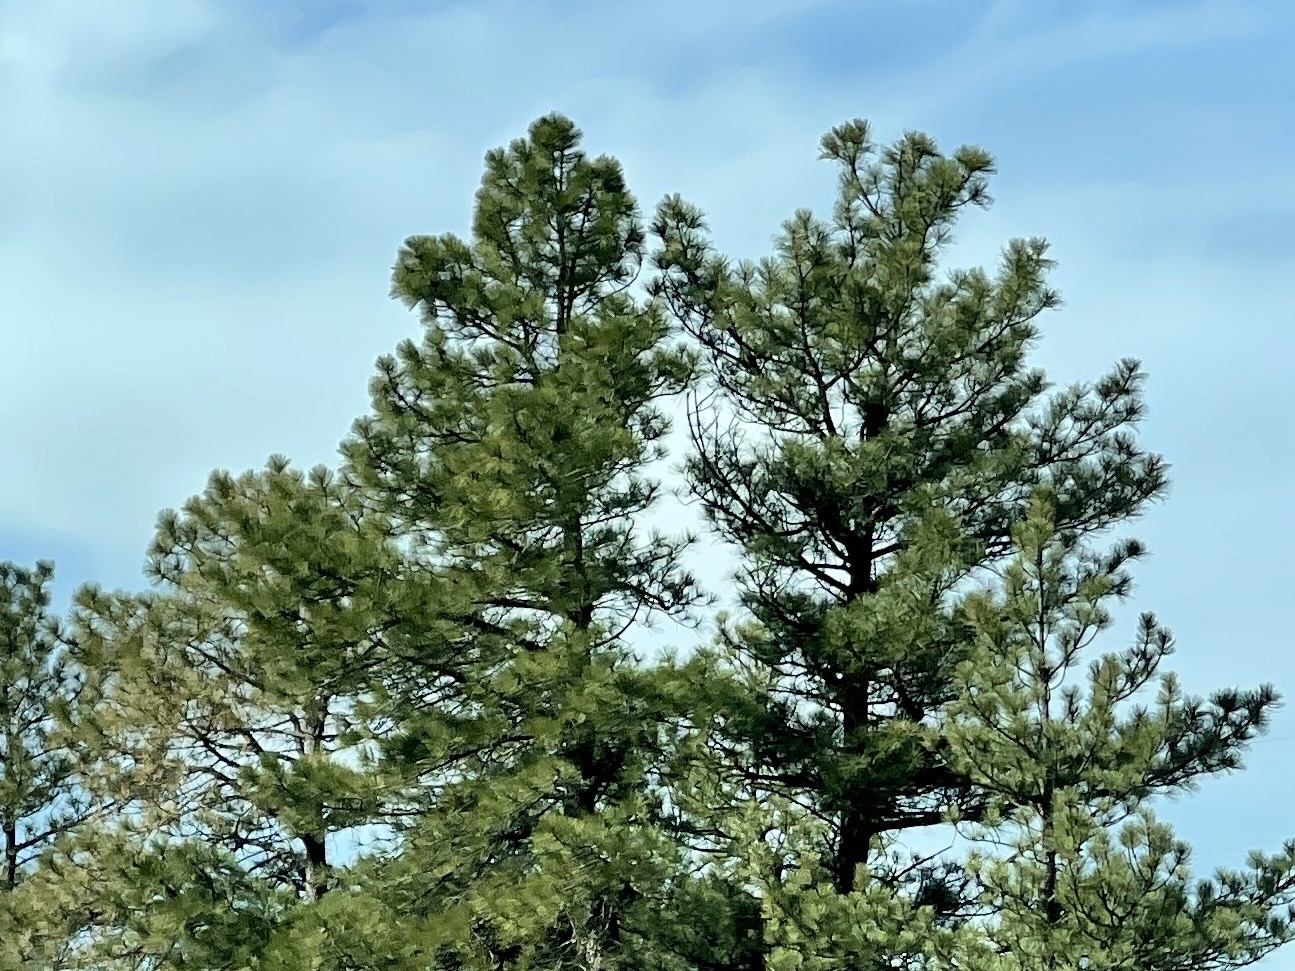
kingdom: Plantae
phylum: Tracheophyta
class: Pinopsida
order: Pinales
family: Pinaceae
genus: Pinus
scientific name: Pinus ponderosa
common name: Western yellow-pine
